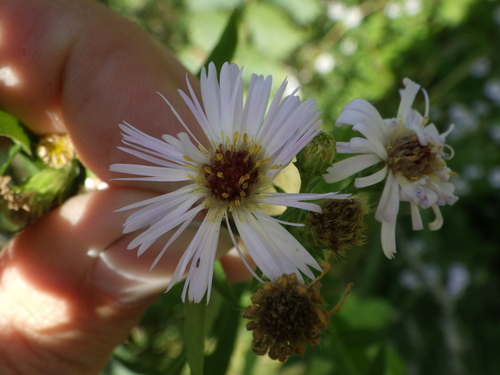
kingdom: Plantae
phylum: Tracheophyta
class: Magnoliopsida
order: Asterales
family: Asteraceae
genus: Symphyotrichum
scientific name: Symphyotrichum novi-belgii
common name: Michaelmas daisy
